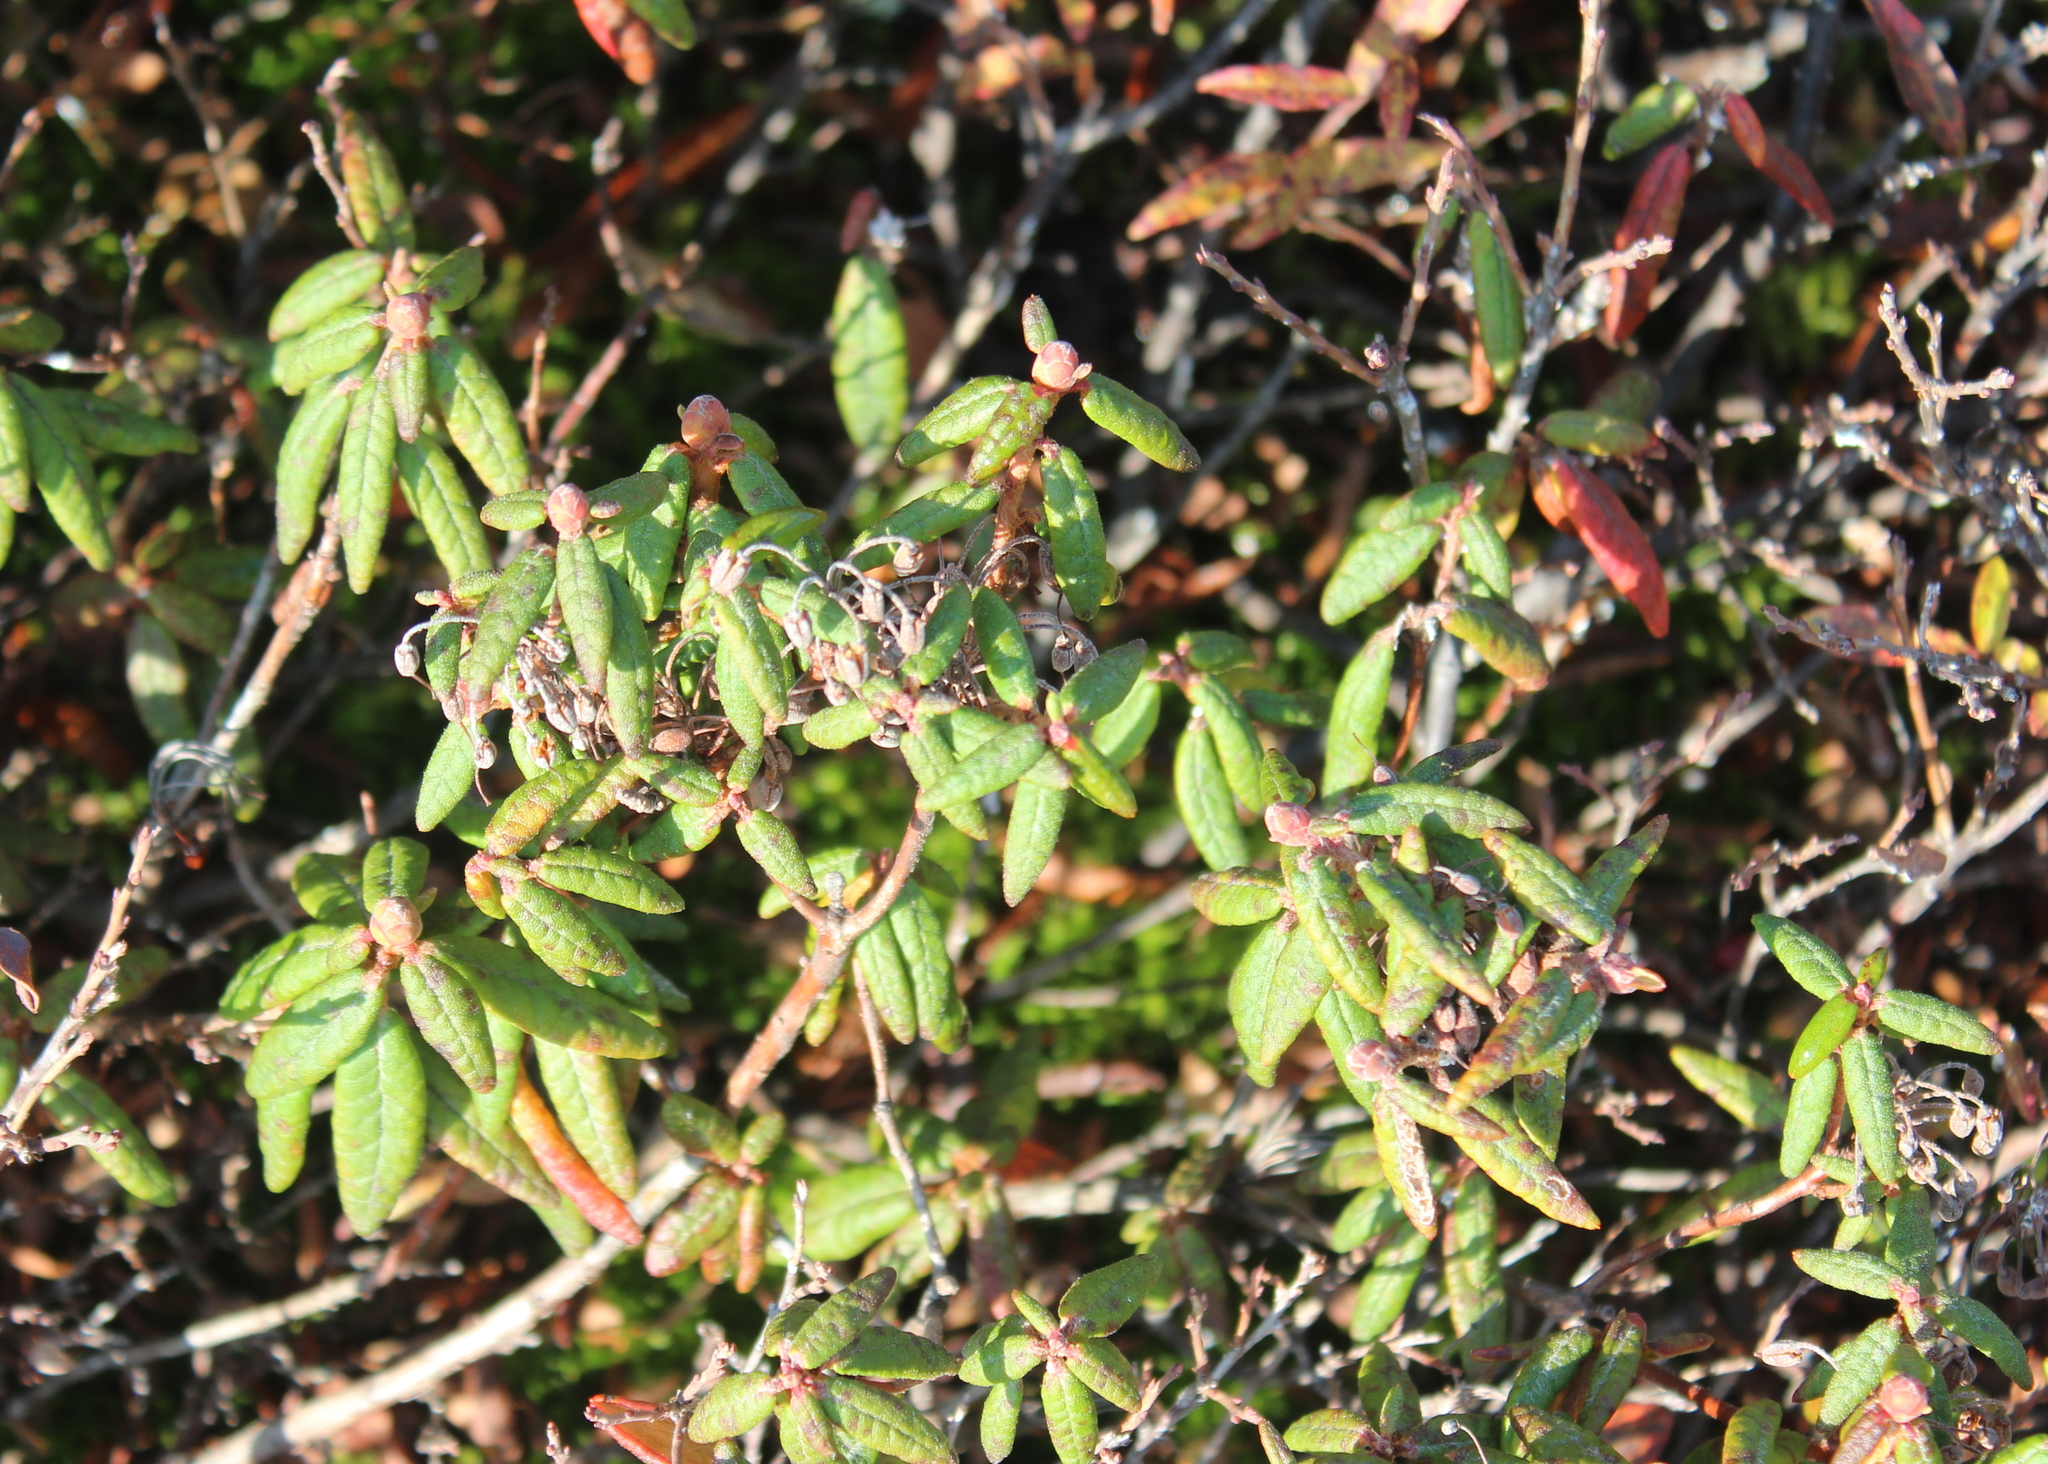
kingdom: Plantae
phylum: Tracheophyta
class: Magnoliopsida
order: Ericales
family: Ericaceae
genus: Rhododendron
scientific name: Rhododendron groenlandicum
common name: Bog labrador tea
